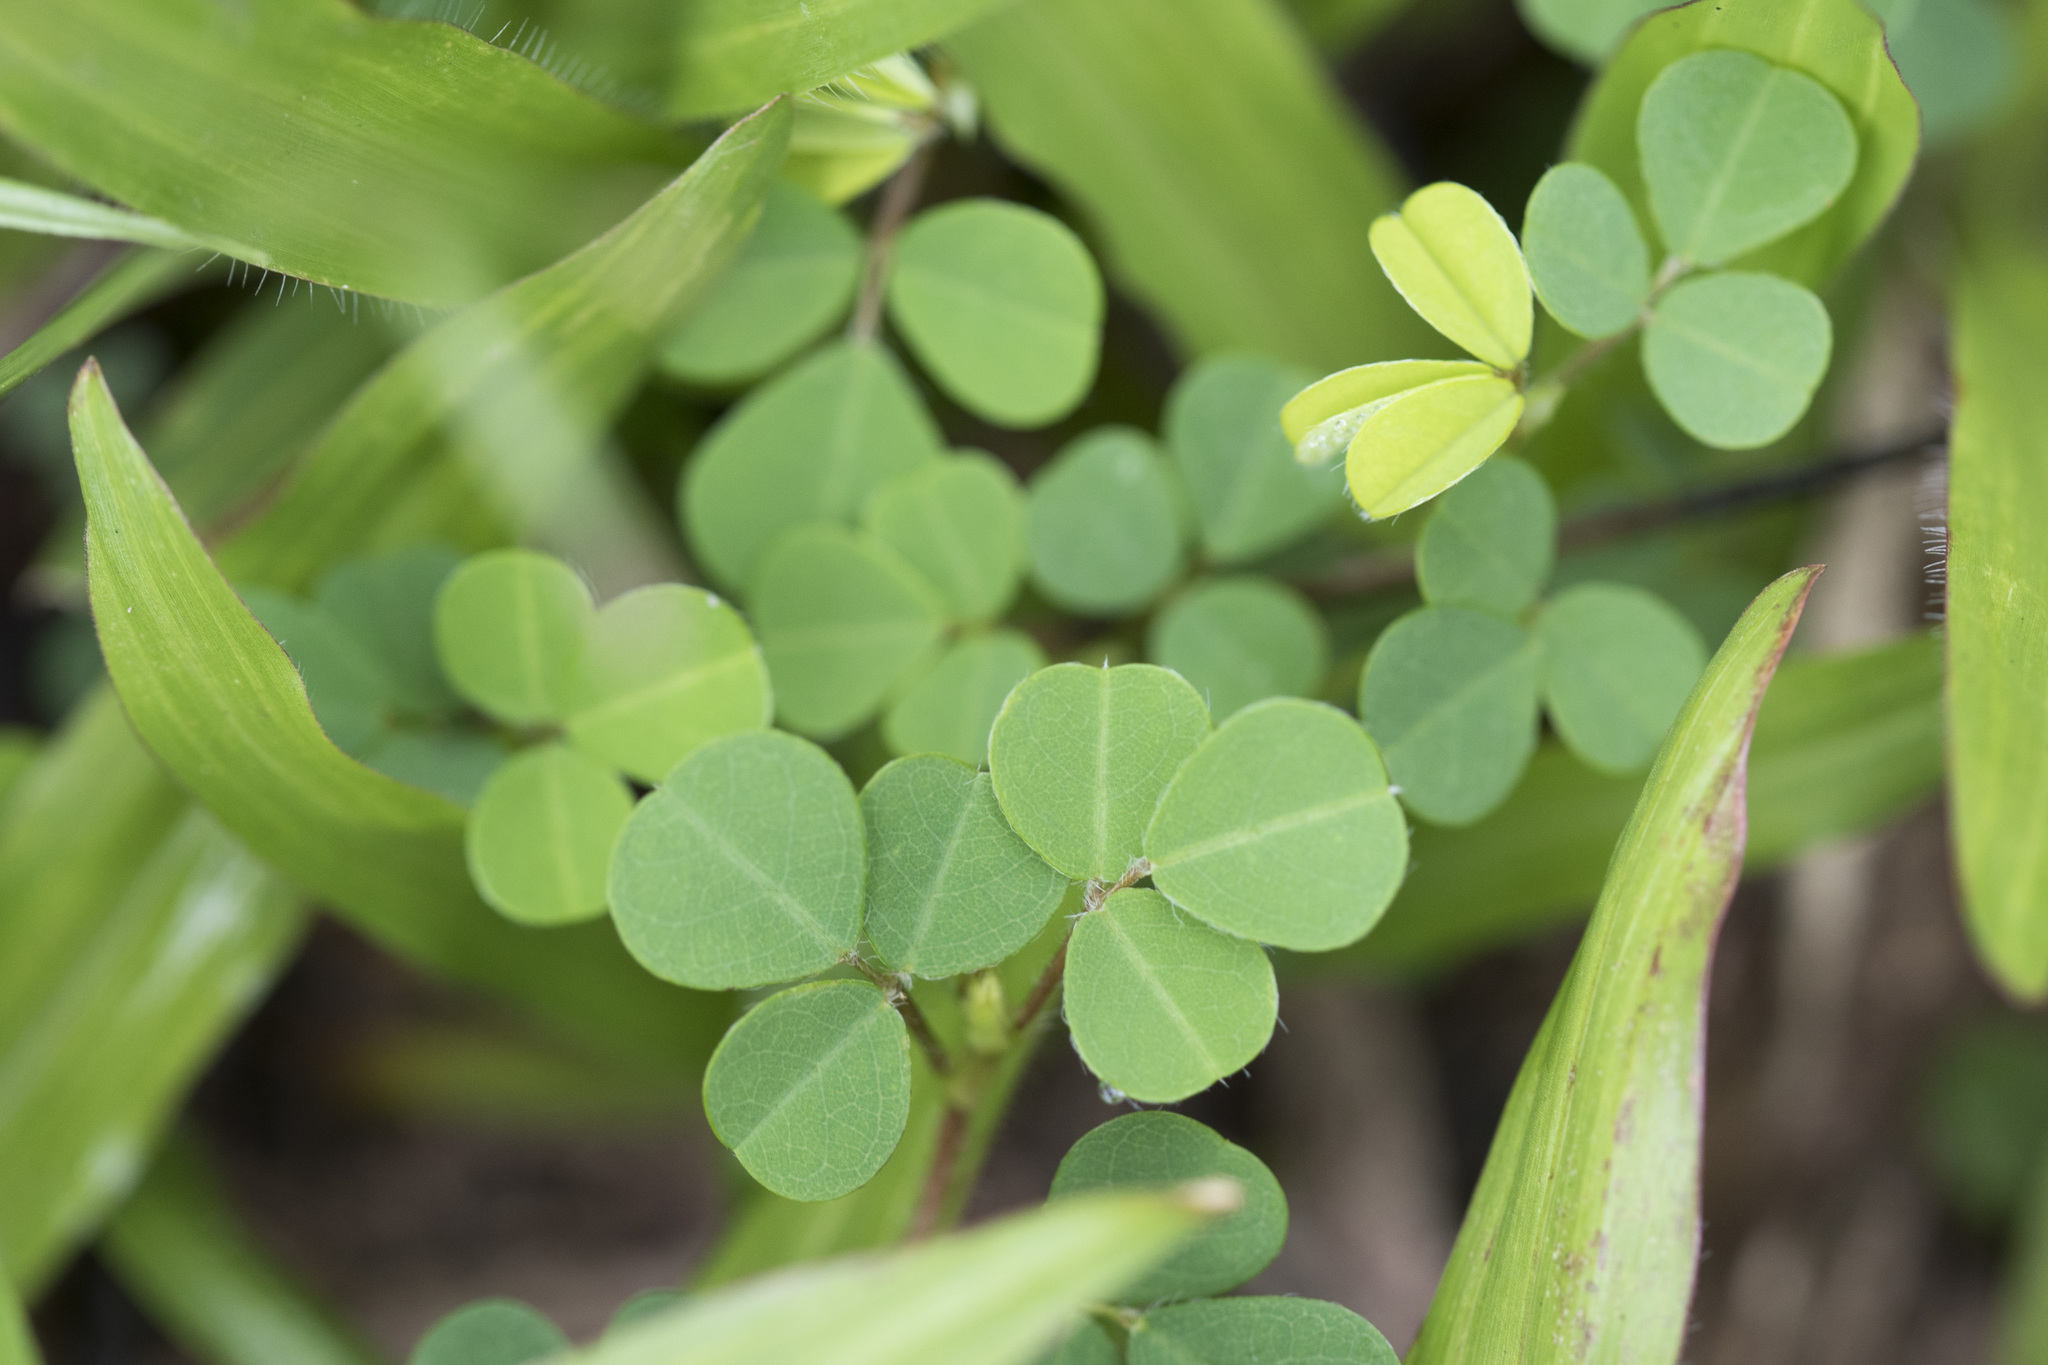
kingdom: Plantae
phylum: Tracheophyta
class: Magnoliopsida
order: Fabales
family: Fabaceae
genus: Grona
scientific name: Grona triflora
